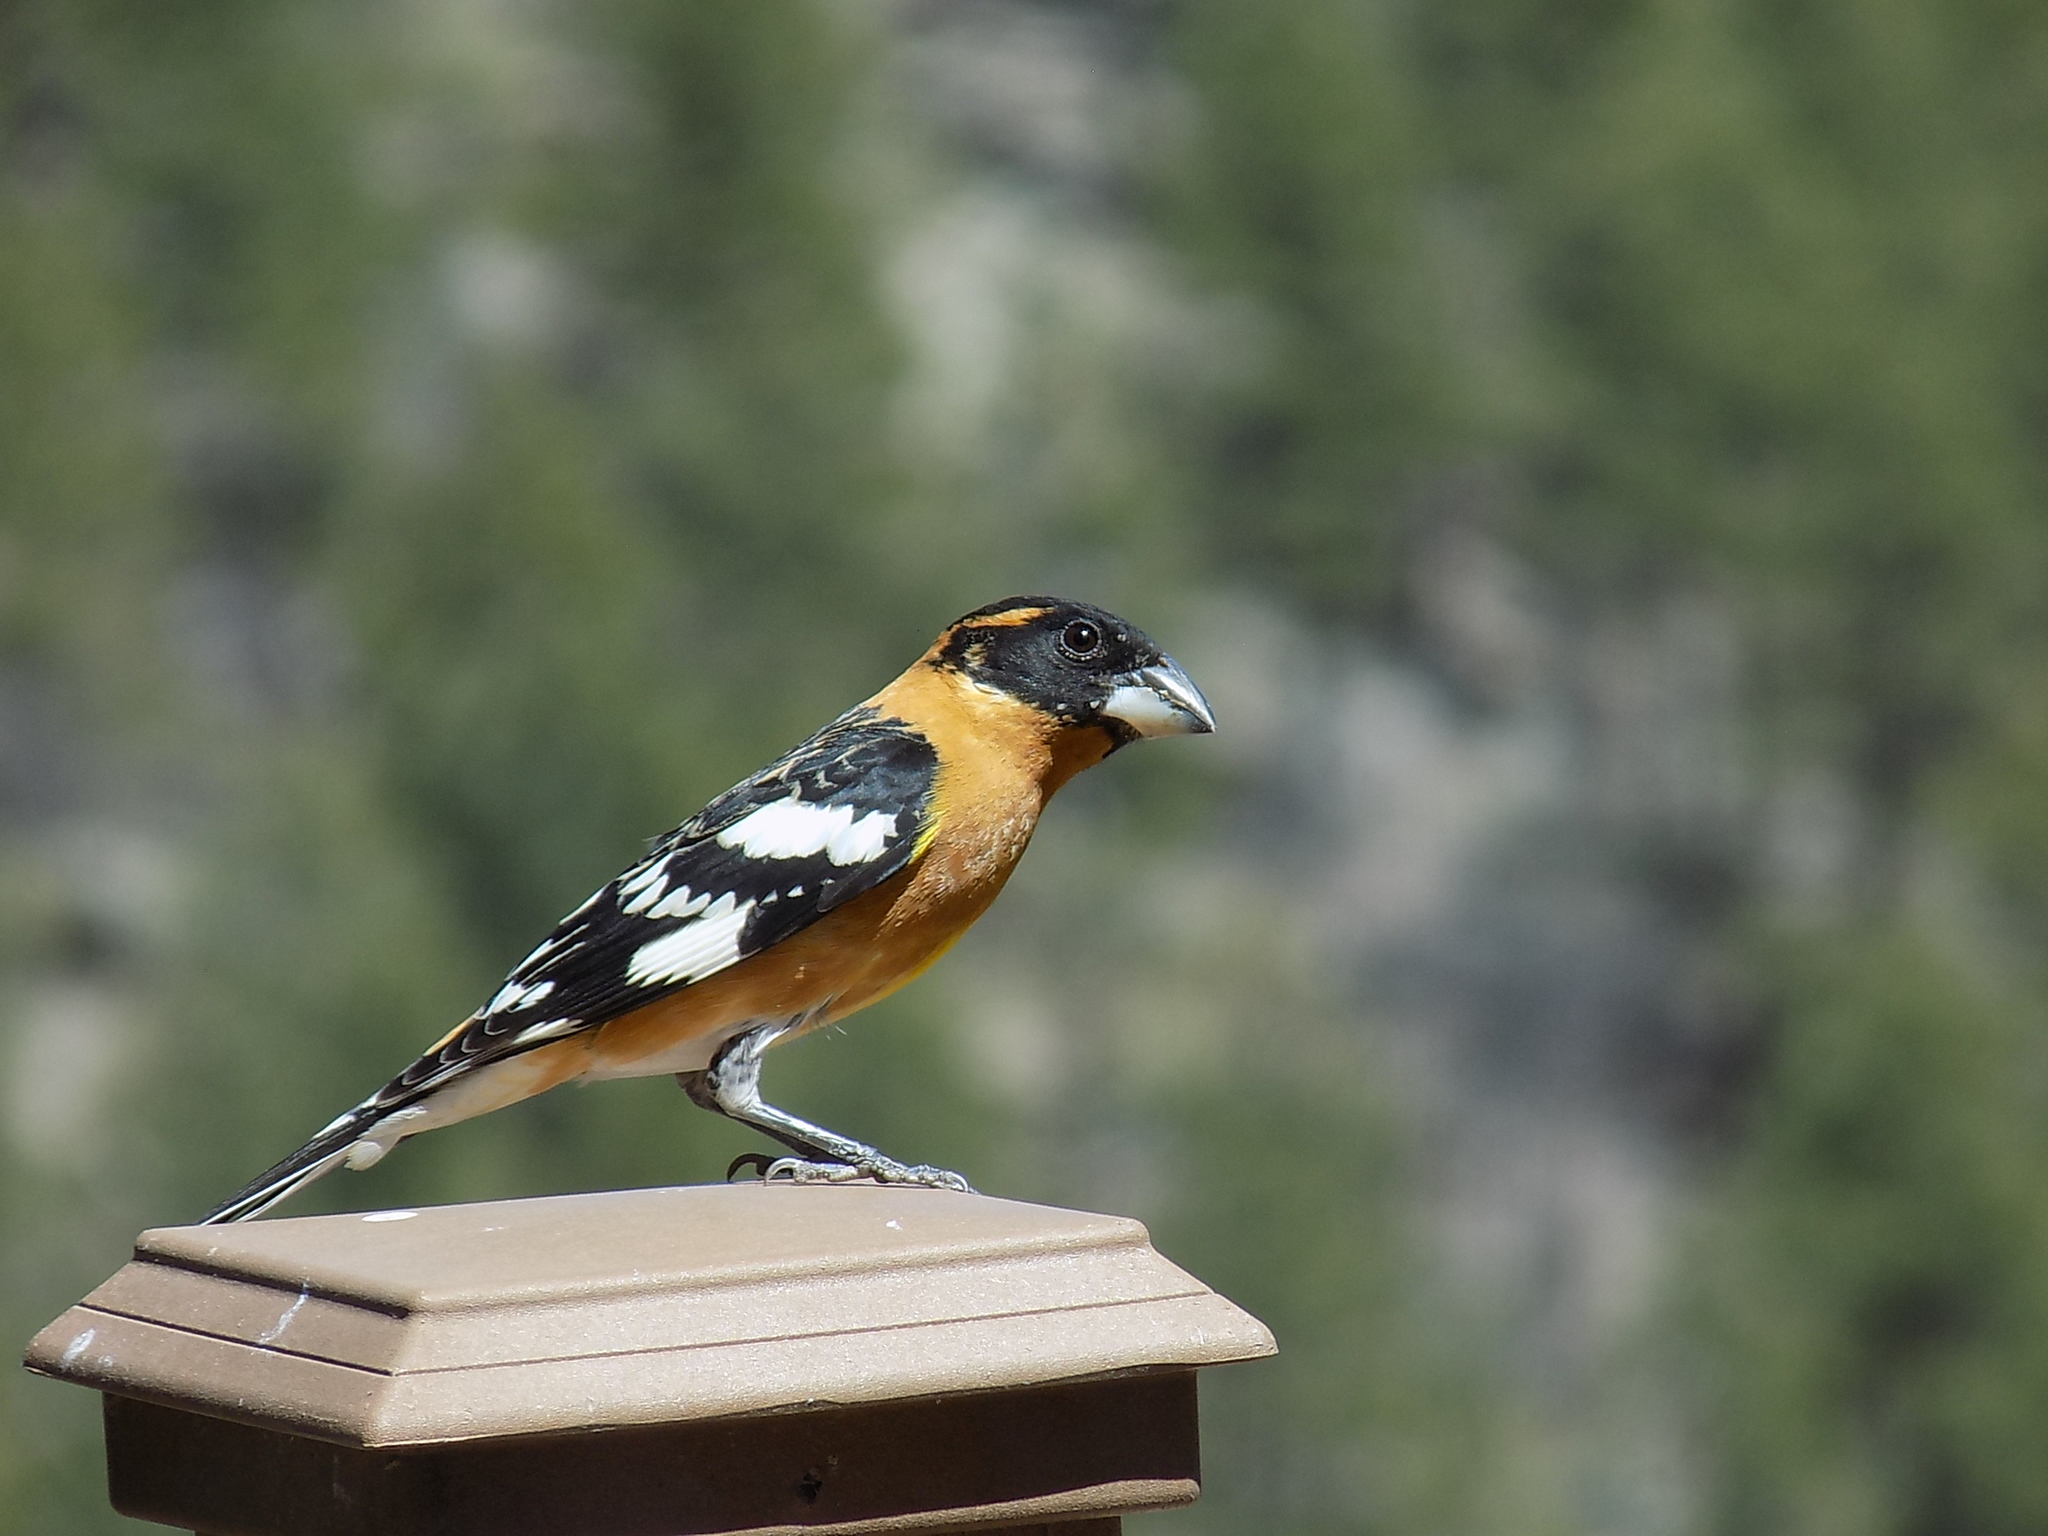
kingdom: Animalia
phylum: Chordata
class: Aves
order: Passeriformes
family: Cardinalidae
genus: Pheucticus
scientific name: Pheucticus melanocephalus
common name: Black-headed grosbeak
